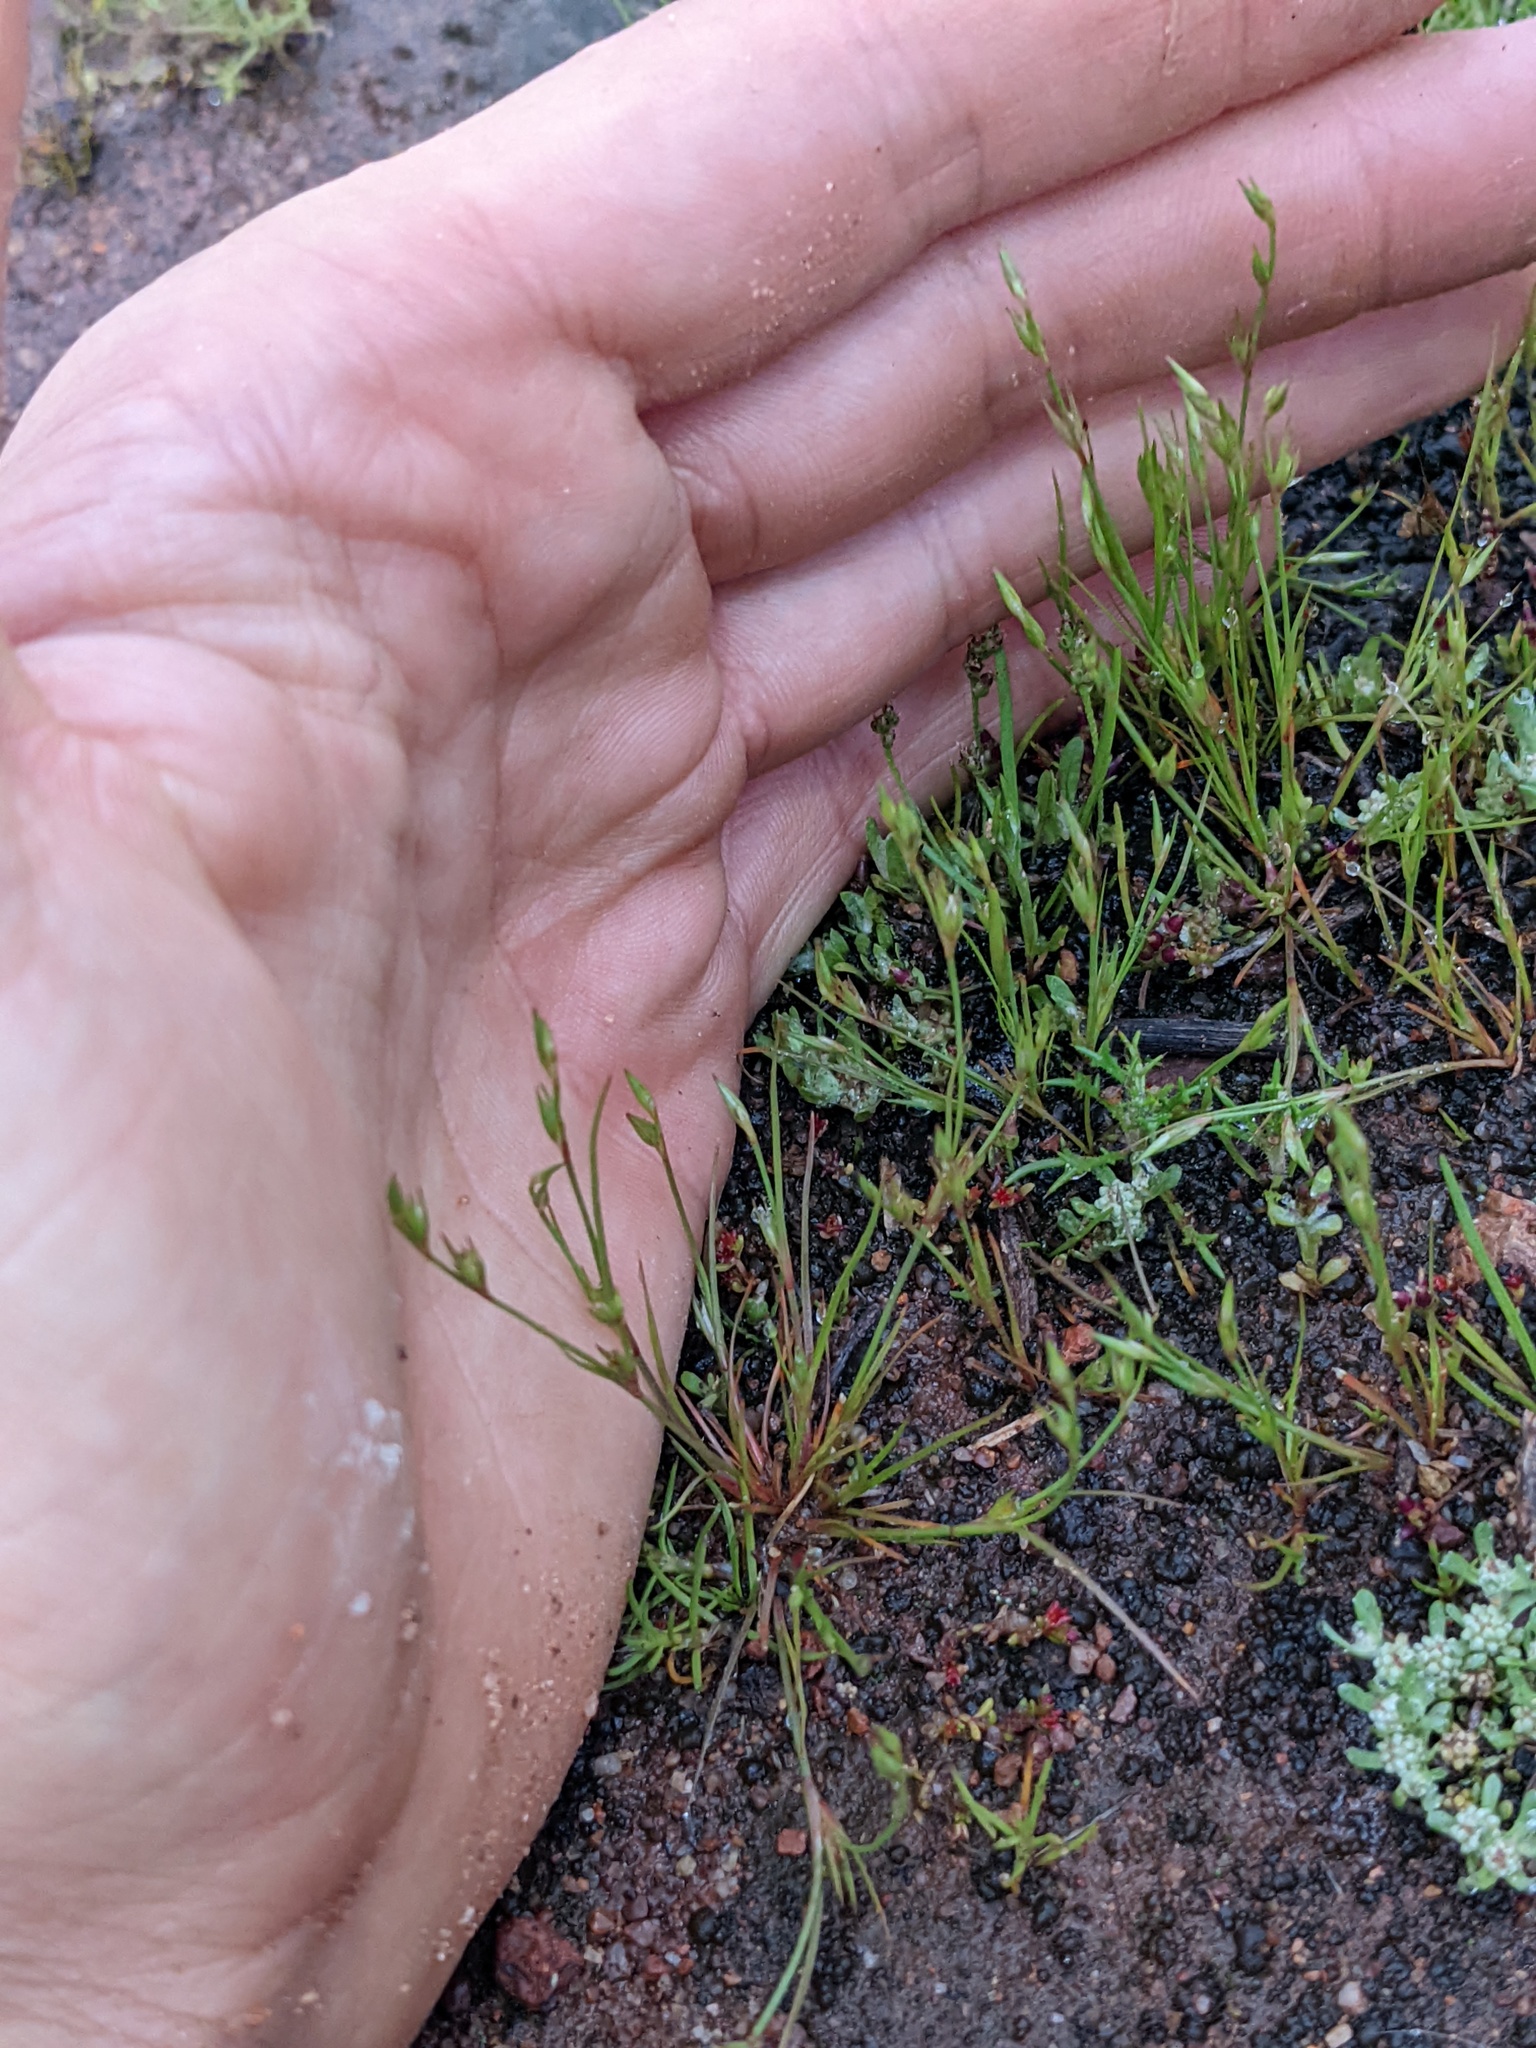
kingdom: Plantae
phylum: Tracheophyta
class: Liliopsida
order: Poales
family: Juncaceae
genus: Juncus
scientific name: Juncus bufonius
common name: Toad rush
